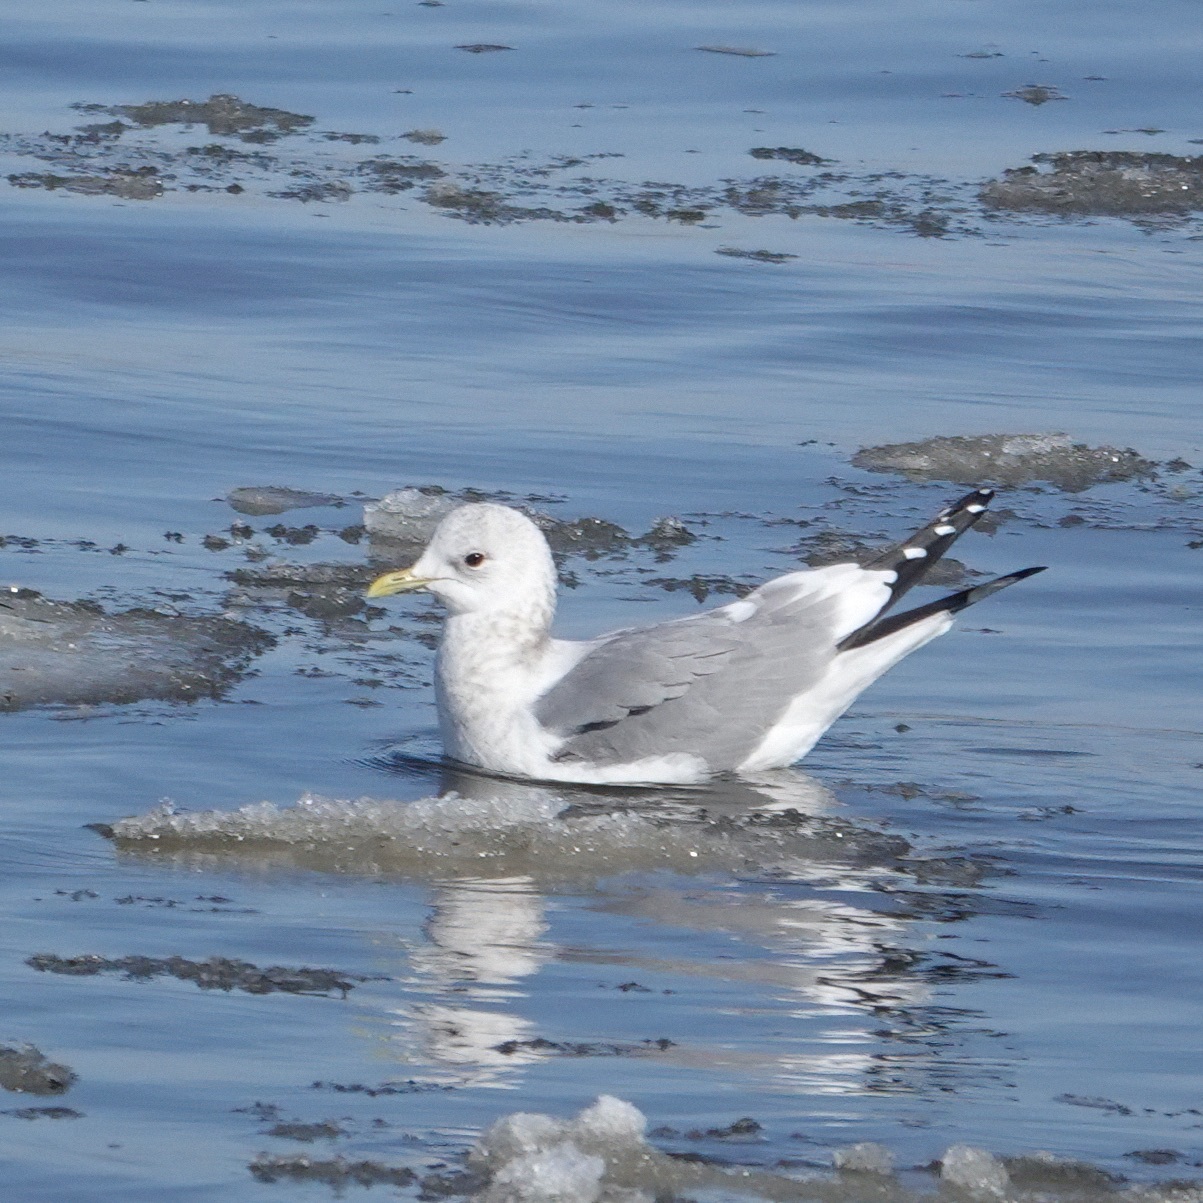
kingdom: Animalia
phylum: Chordata
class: Aves
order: Charadriiformes
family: Laridae
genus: Larus
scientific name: Larus brachyrhynchus
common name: Short-billed gull
